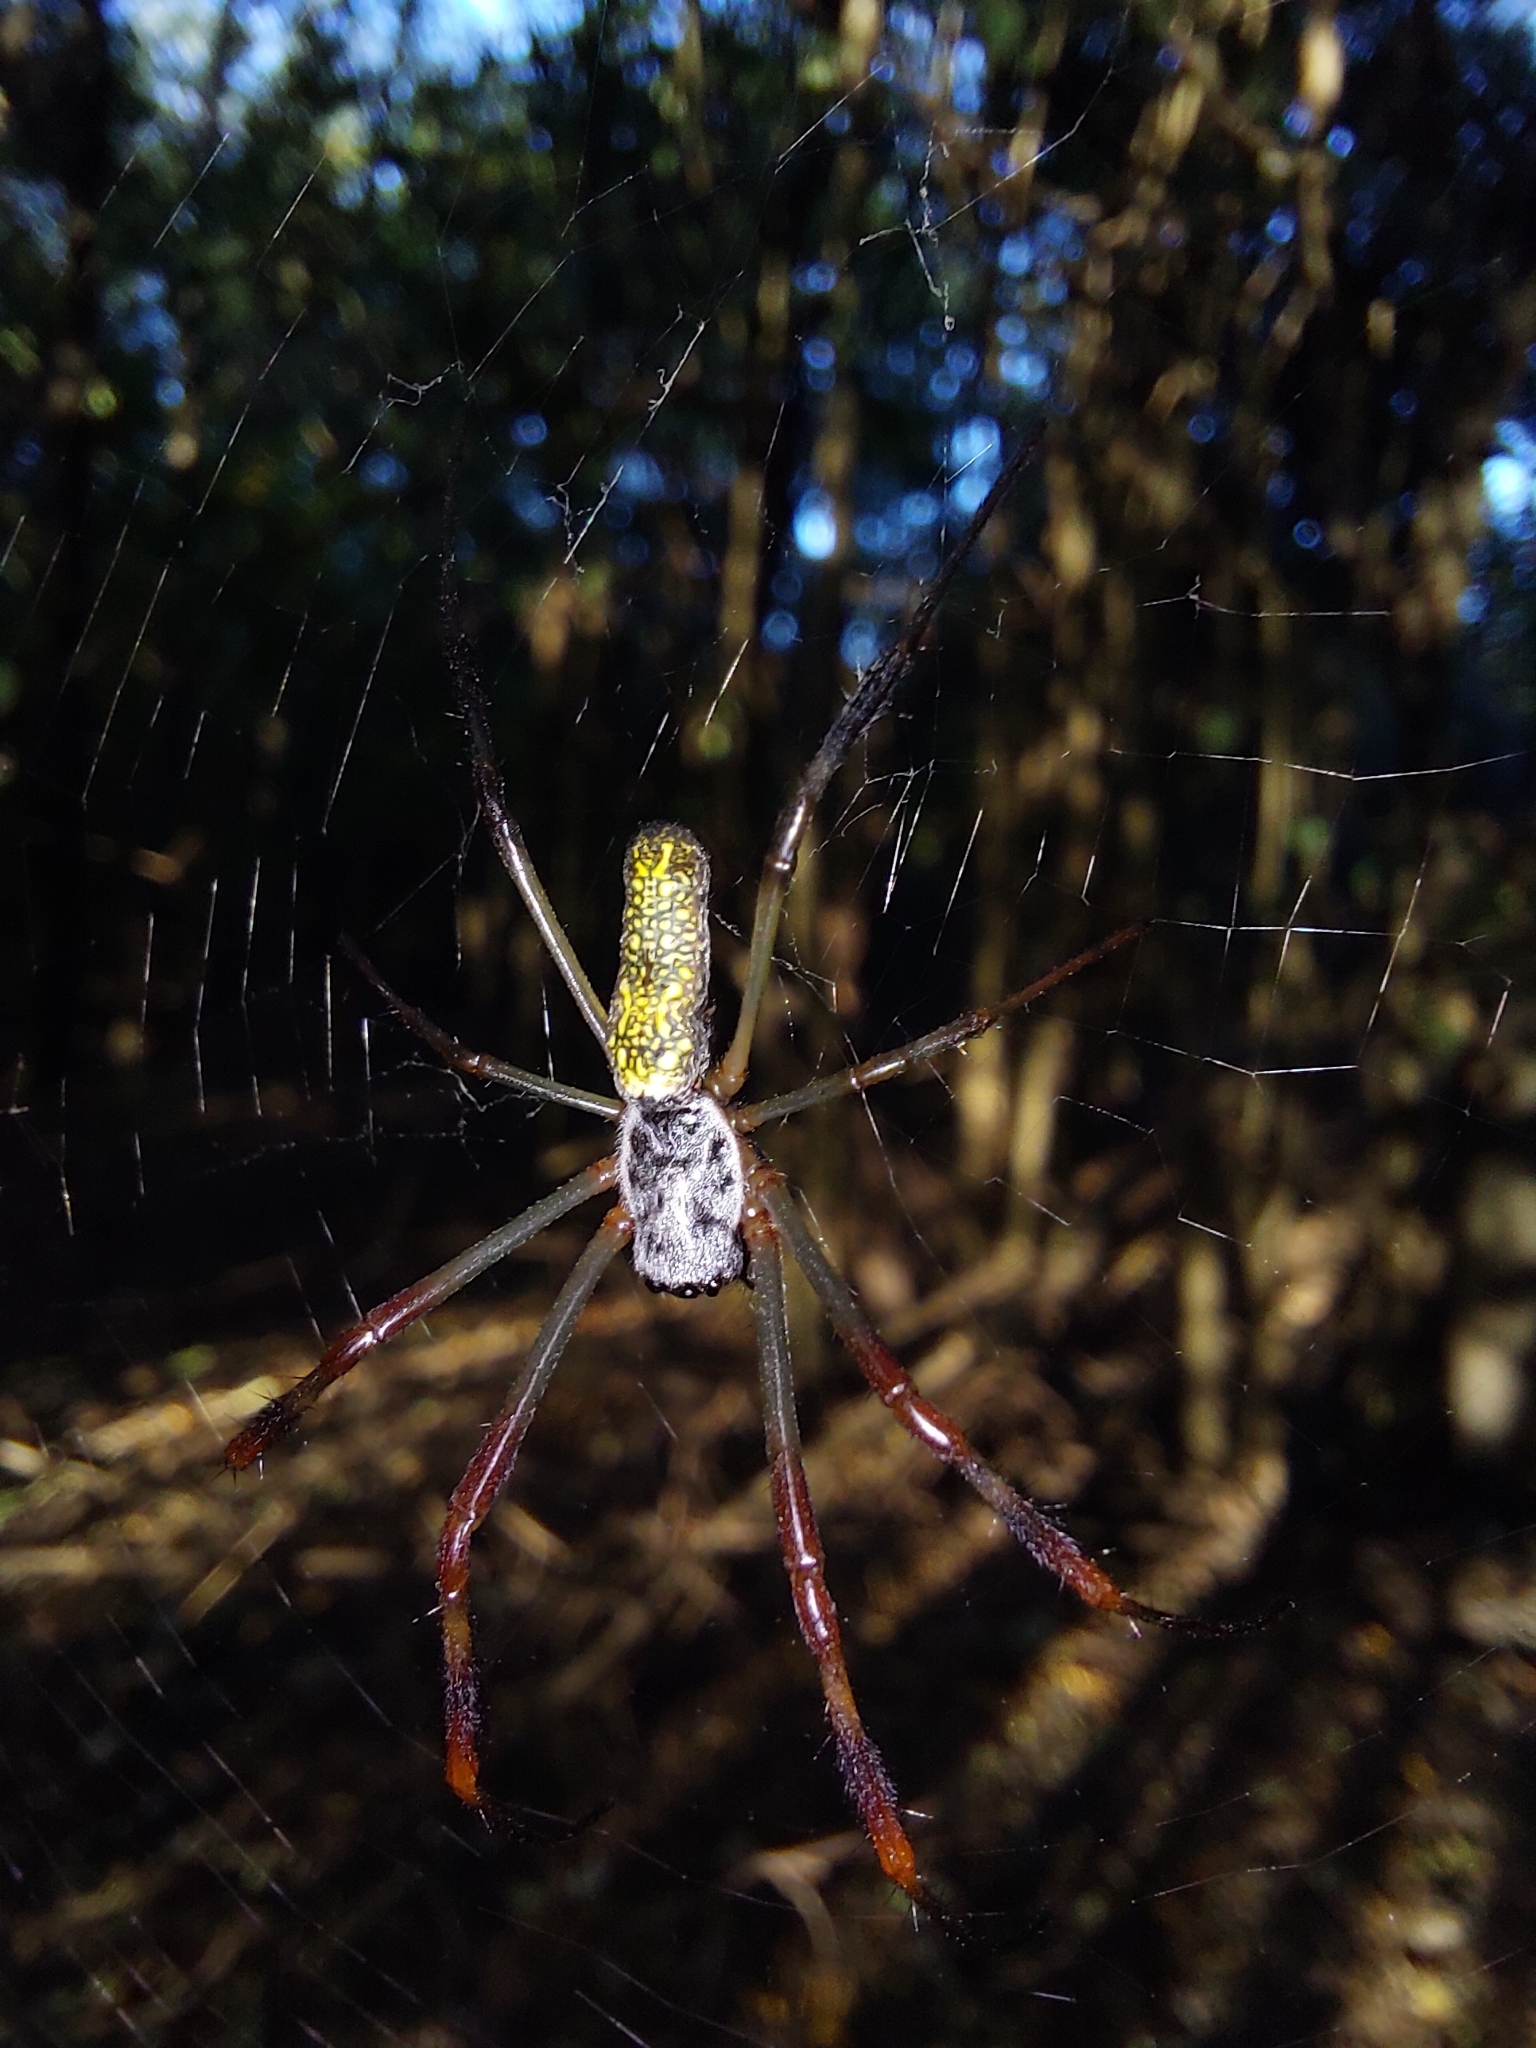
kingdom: Animalia
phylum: Arthropoda
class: Arachnida
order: Araneae
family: Araneidae
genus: Trichonephila
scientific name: Trichonephila sexpunctata
